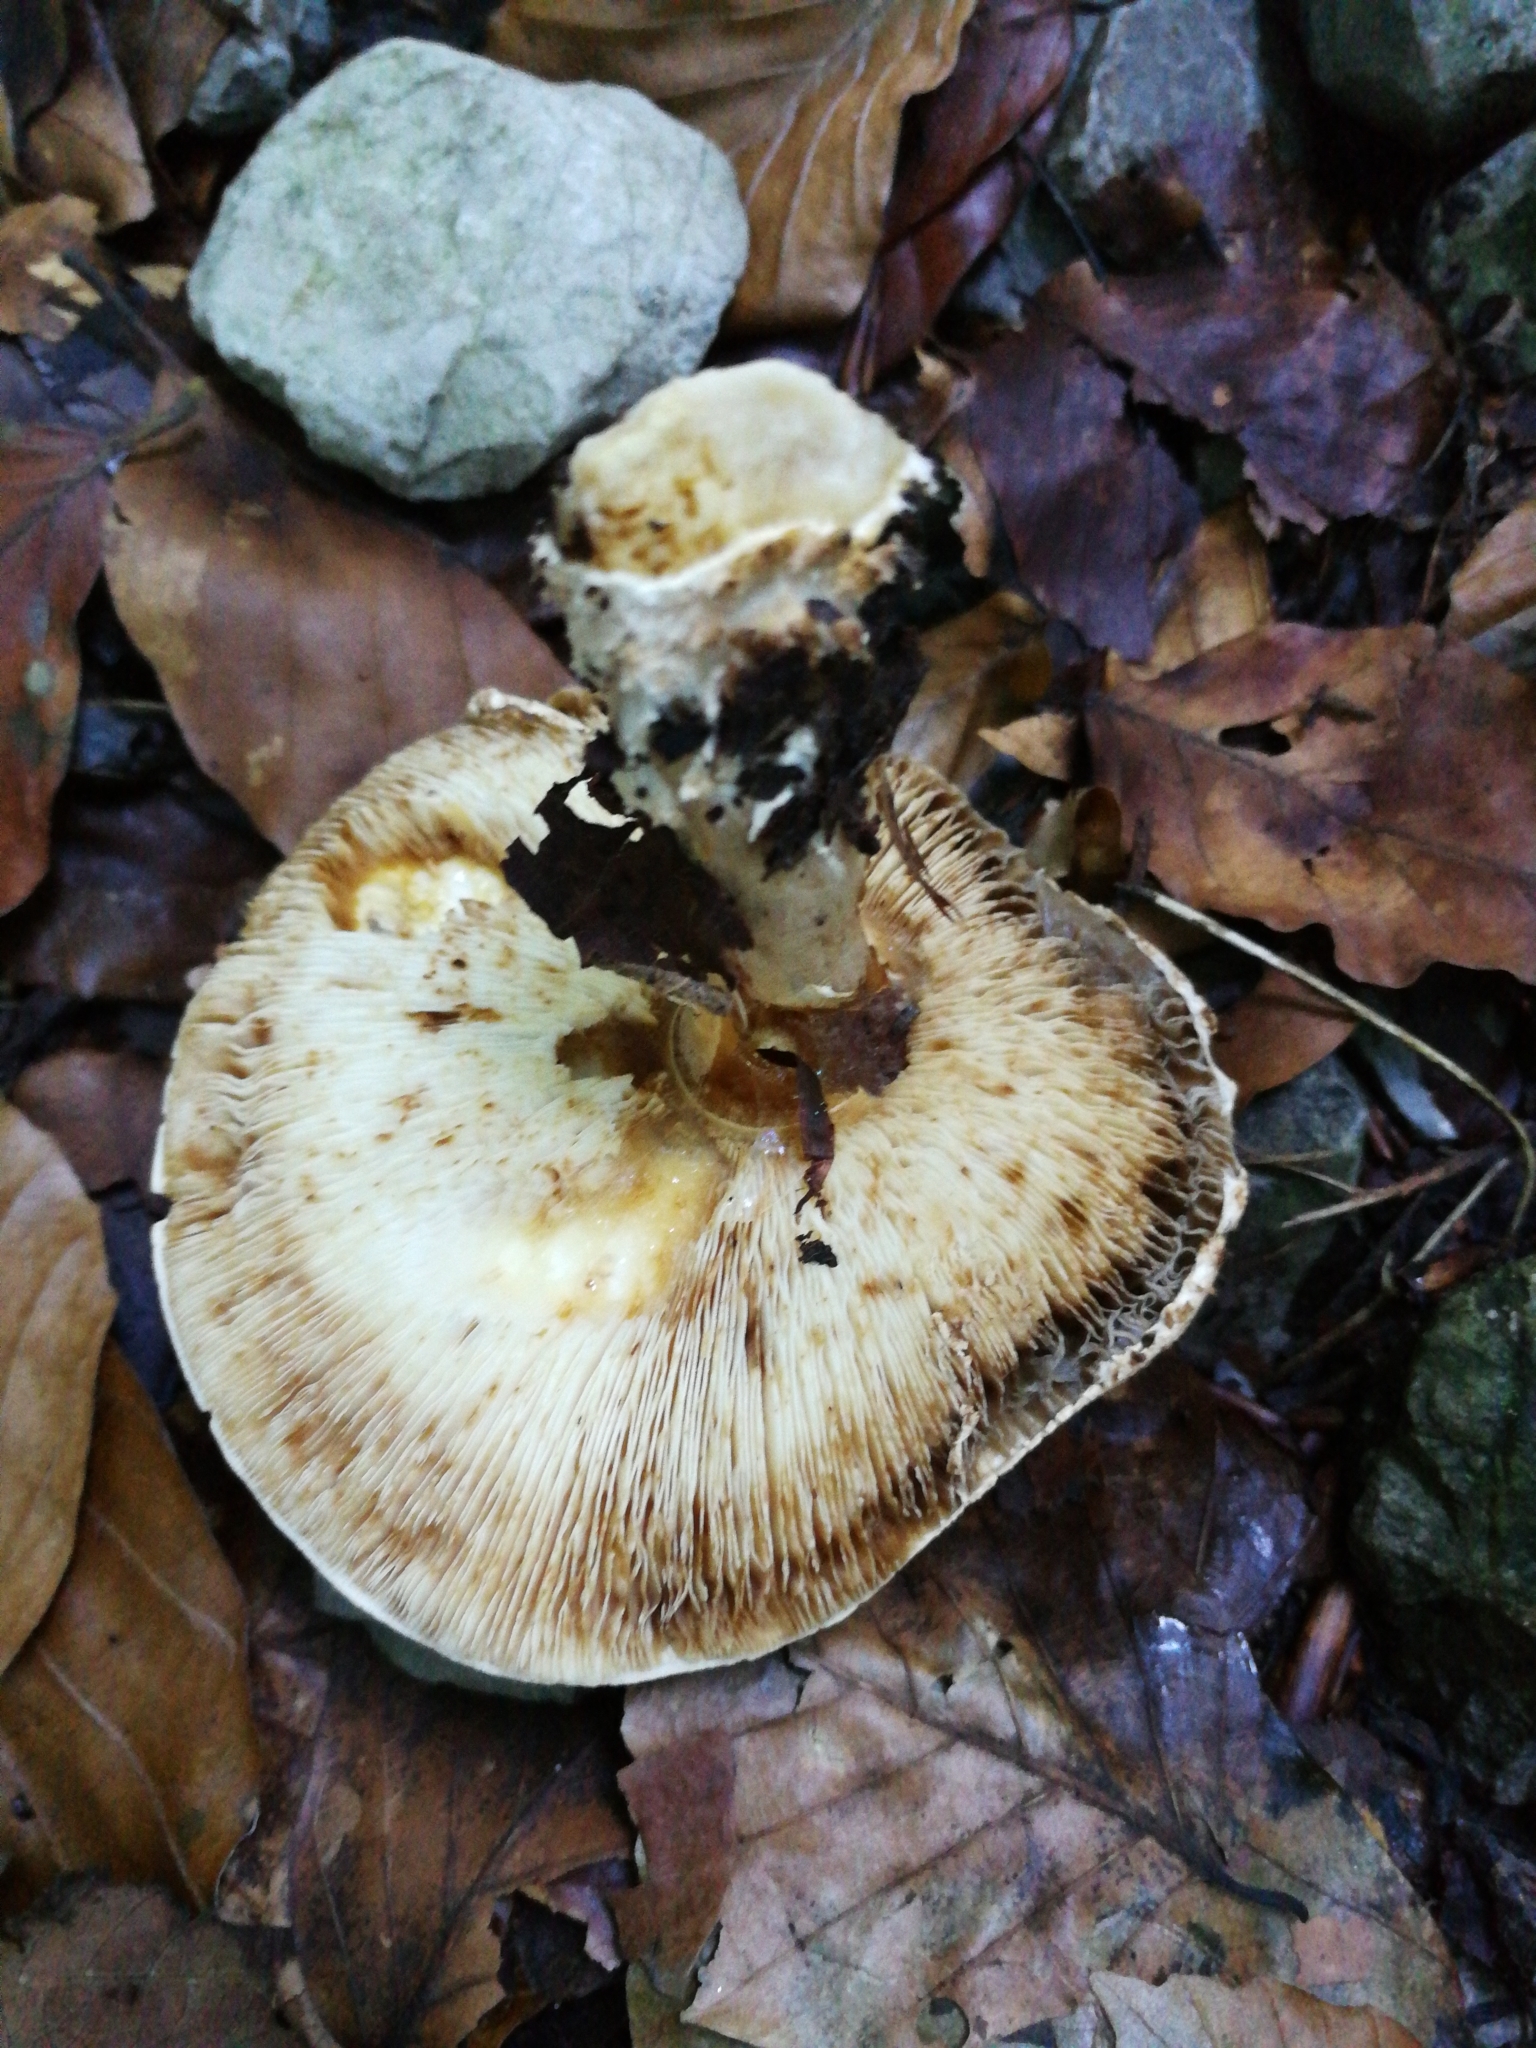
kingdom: Fungi
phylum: Basidiomycota
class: Agaricomycetes
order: Agaricales
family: Agaricaceae
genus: Echinoderma
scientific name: Echinoderma asperum
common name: Freckled dapperling
